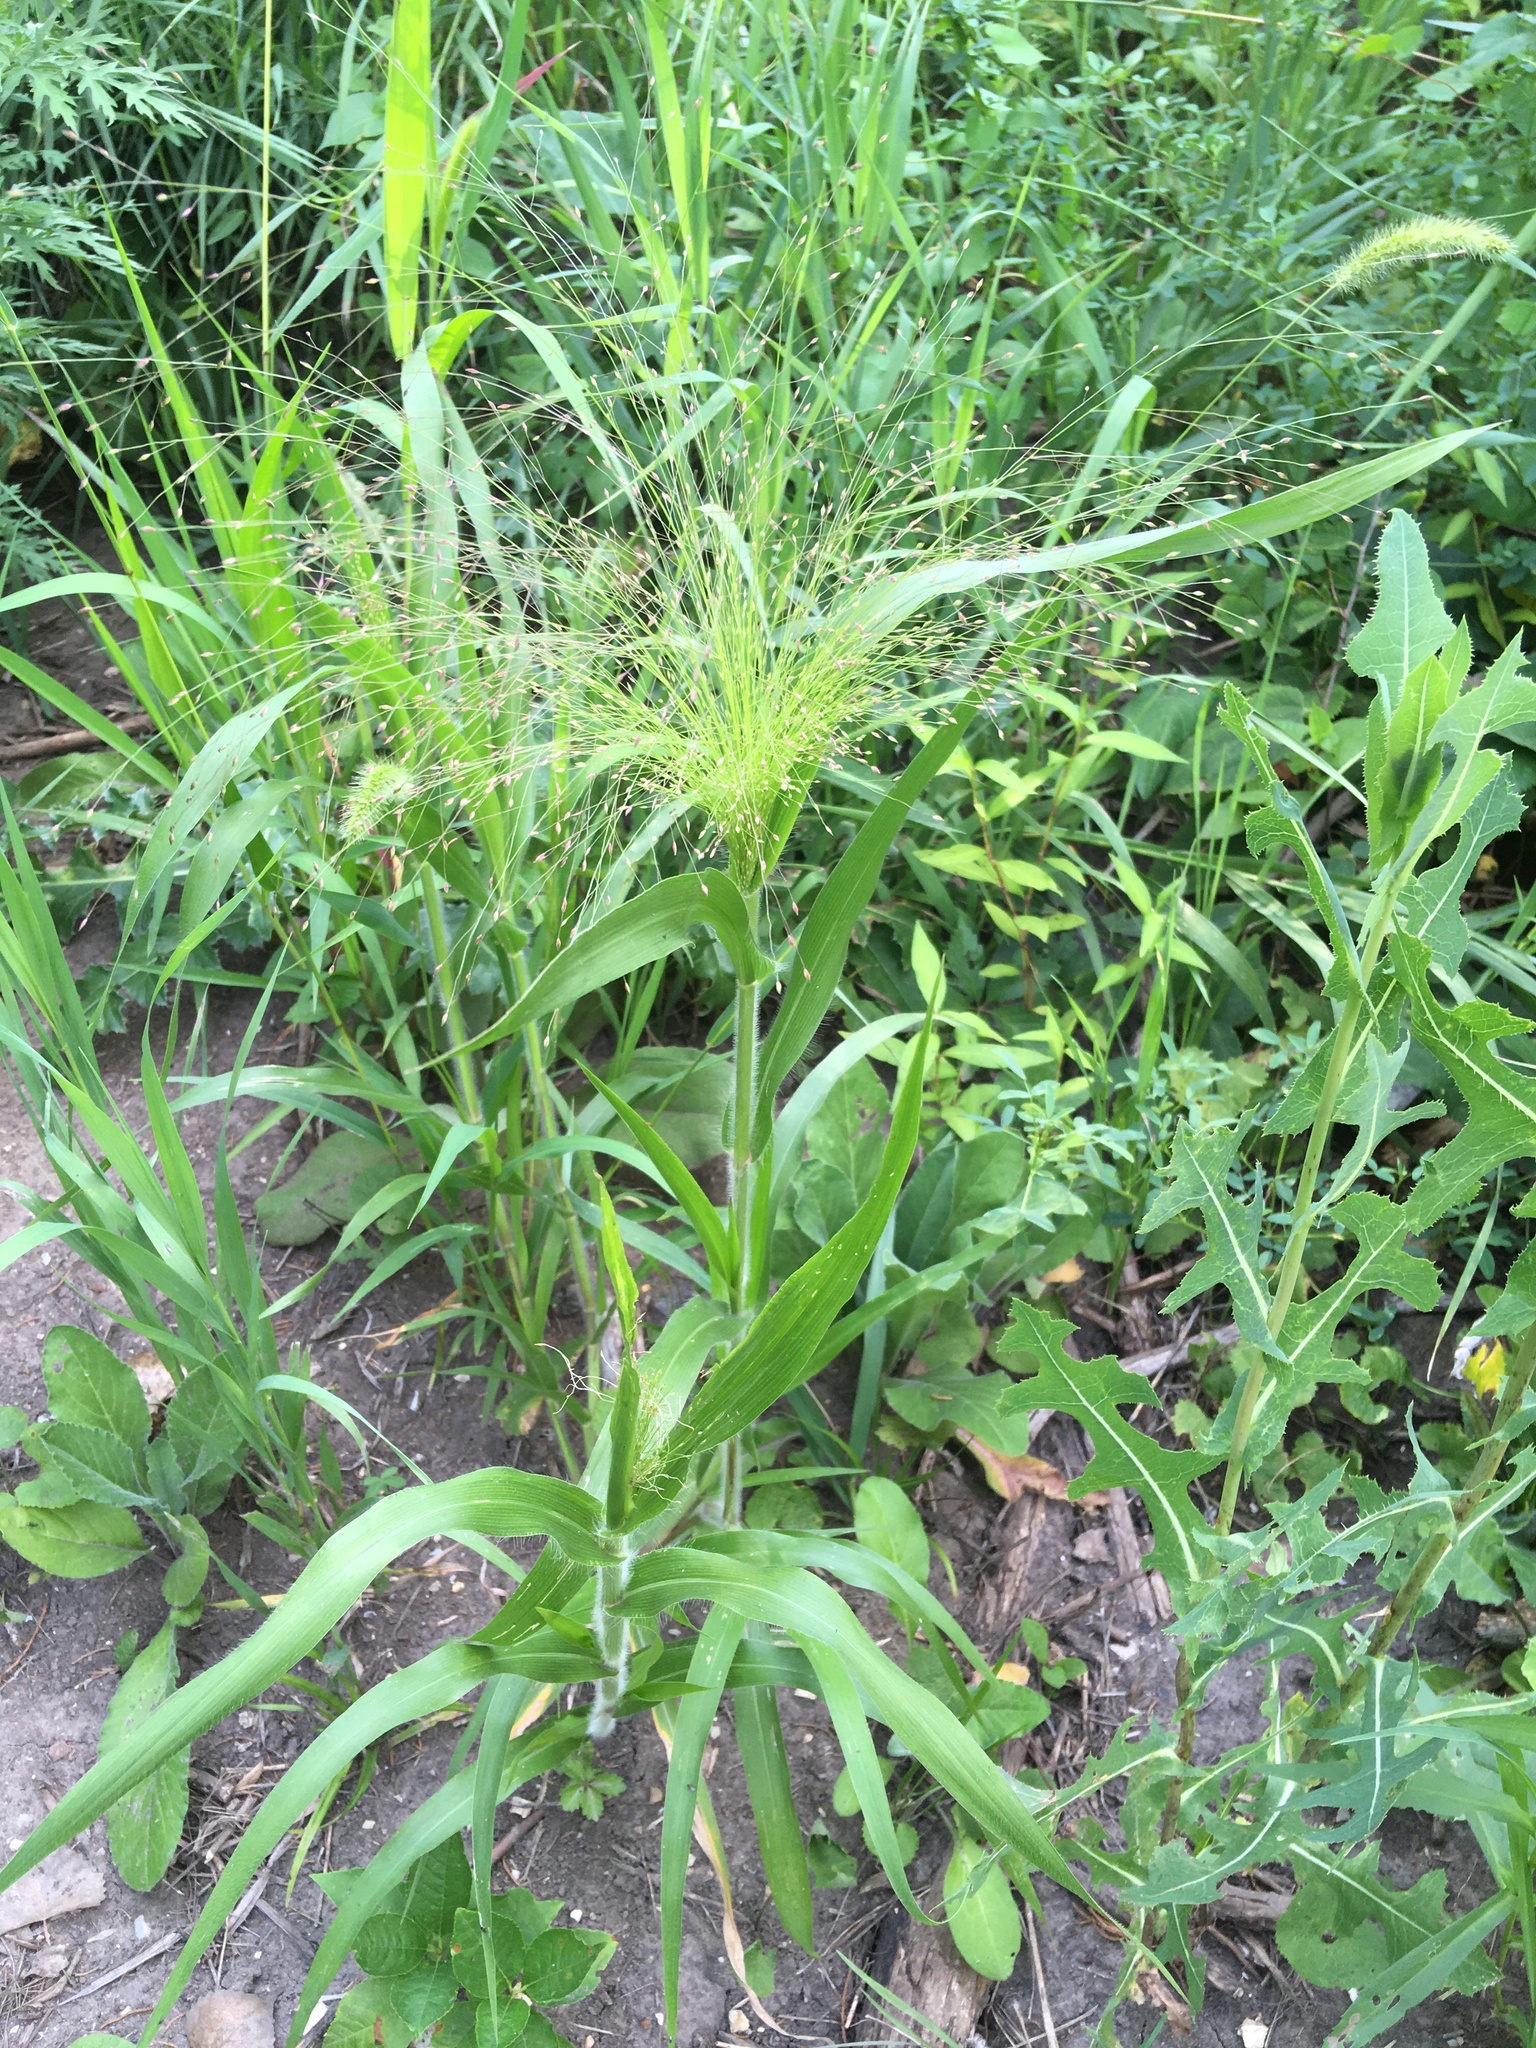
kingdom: Plantae
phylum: Tracheophyta
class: Liliopsida
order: Poales
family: Poaceae
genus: Panicum
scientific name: Panicum capillare
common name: Witch-grass
